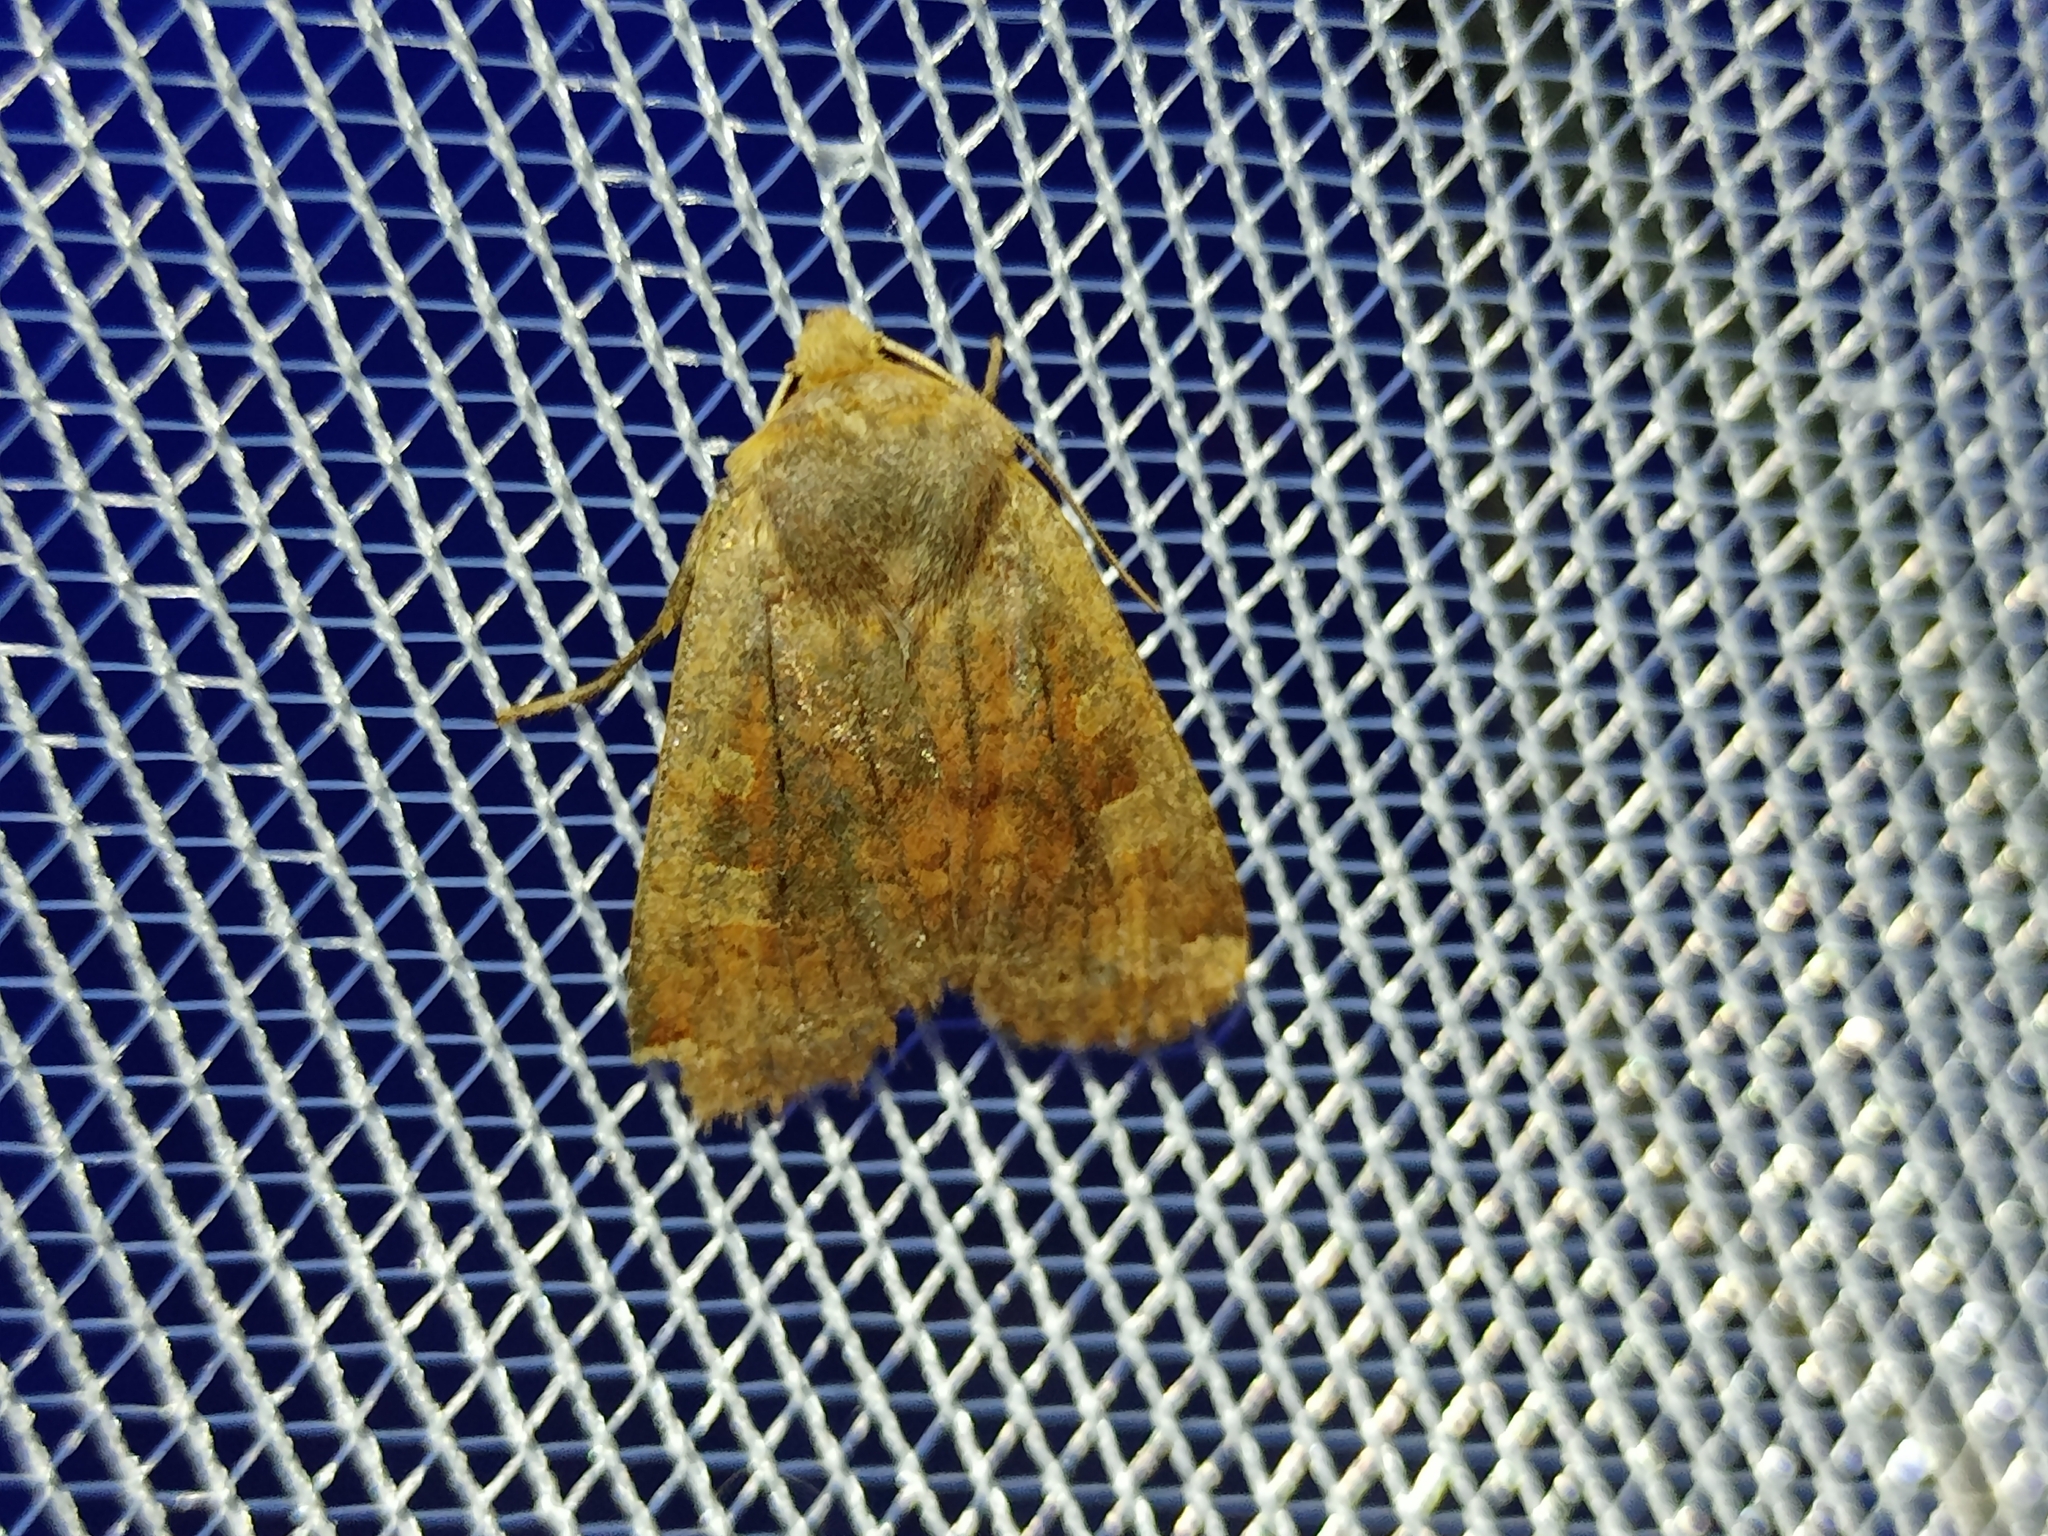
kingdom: Animalia
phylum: Arthropoda
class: Insecta
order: Lepidoptera
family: Noctuidae
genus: Conistra
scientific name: Conistra erythrocephala
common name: Red-headed chestnut
